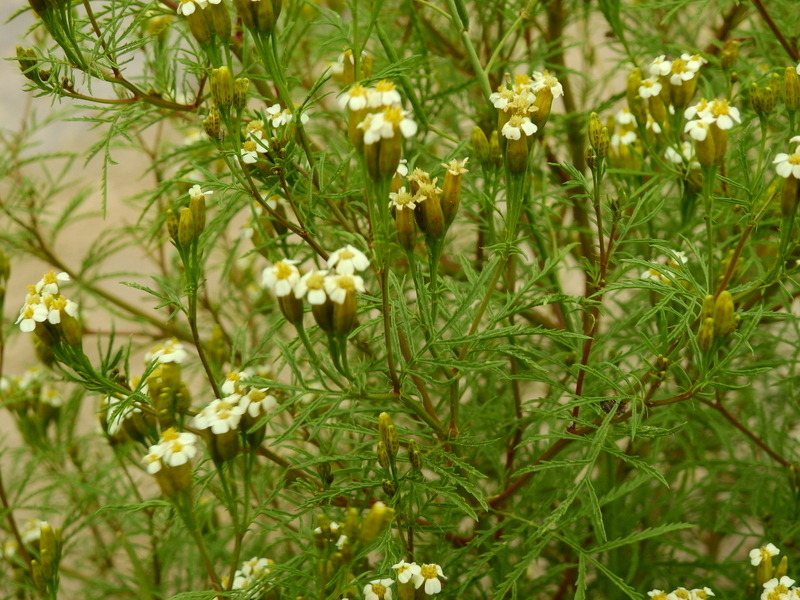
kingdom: Plantae
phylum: Tracheophyta
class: Magnoliopsida
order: Asterales
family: Asteraceae
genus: Tagetes
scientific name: Tagetes argentina
